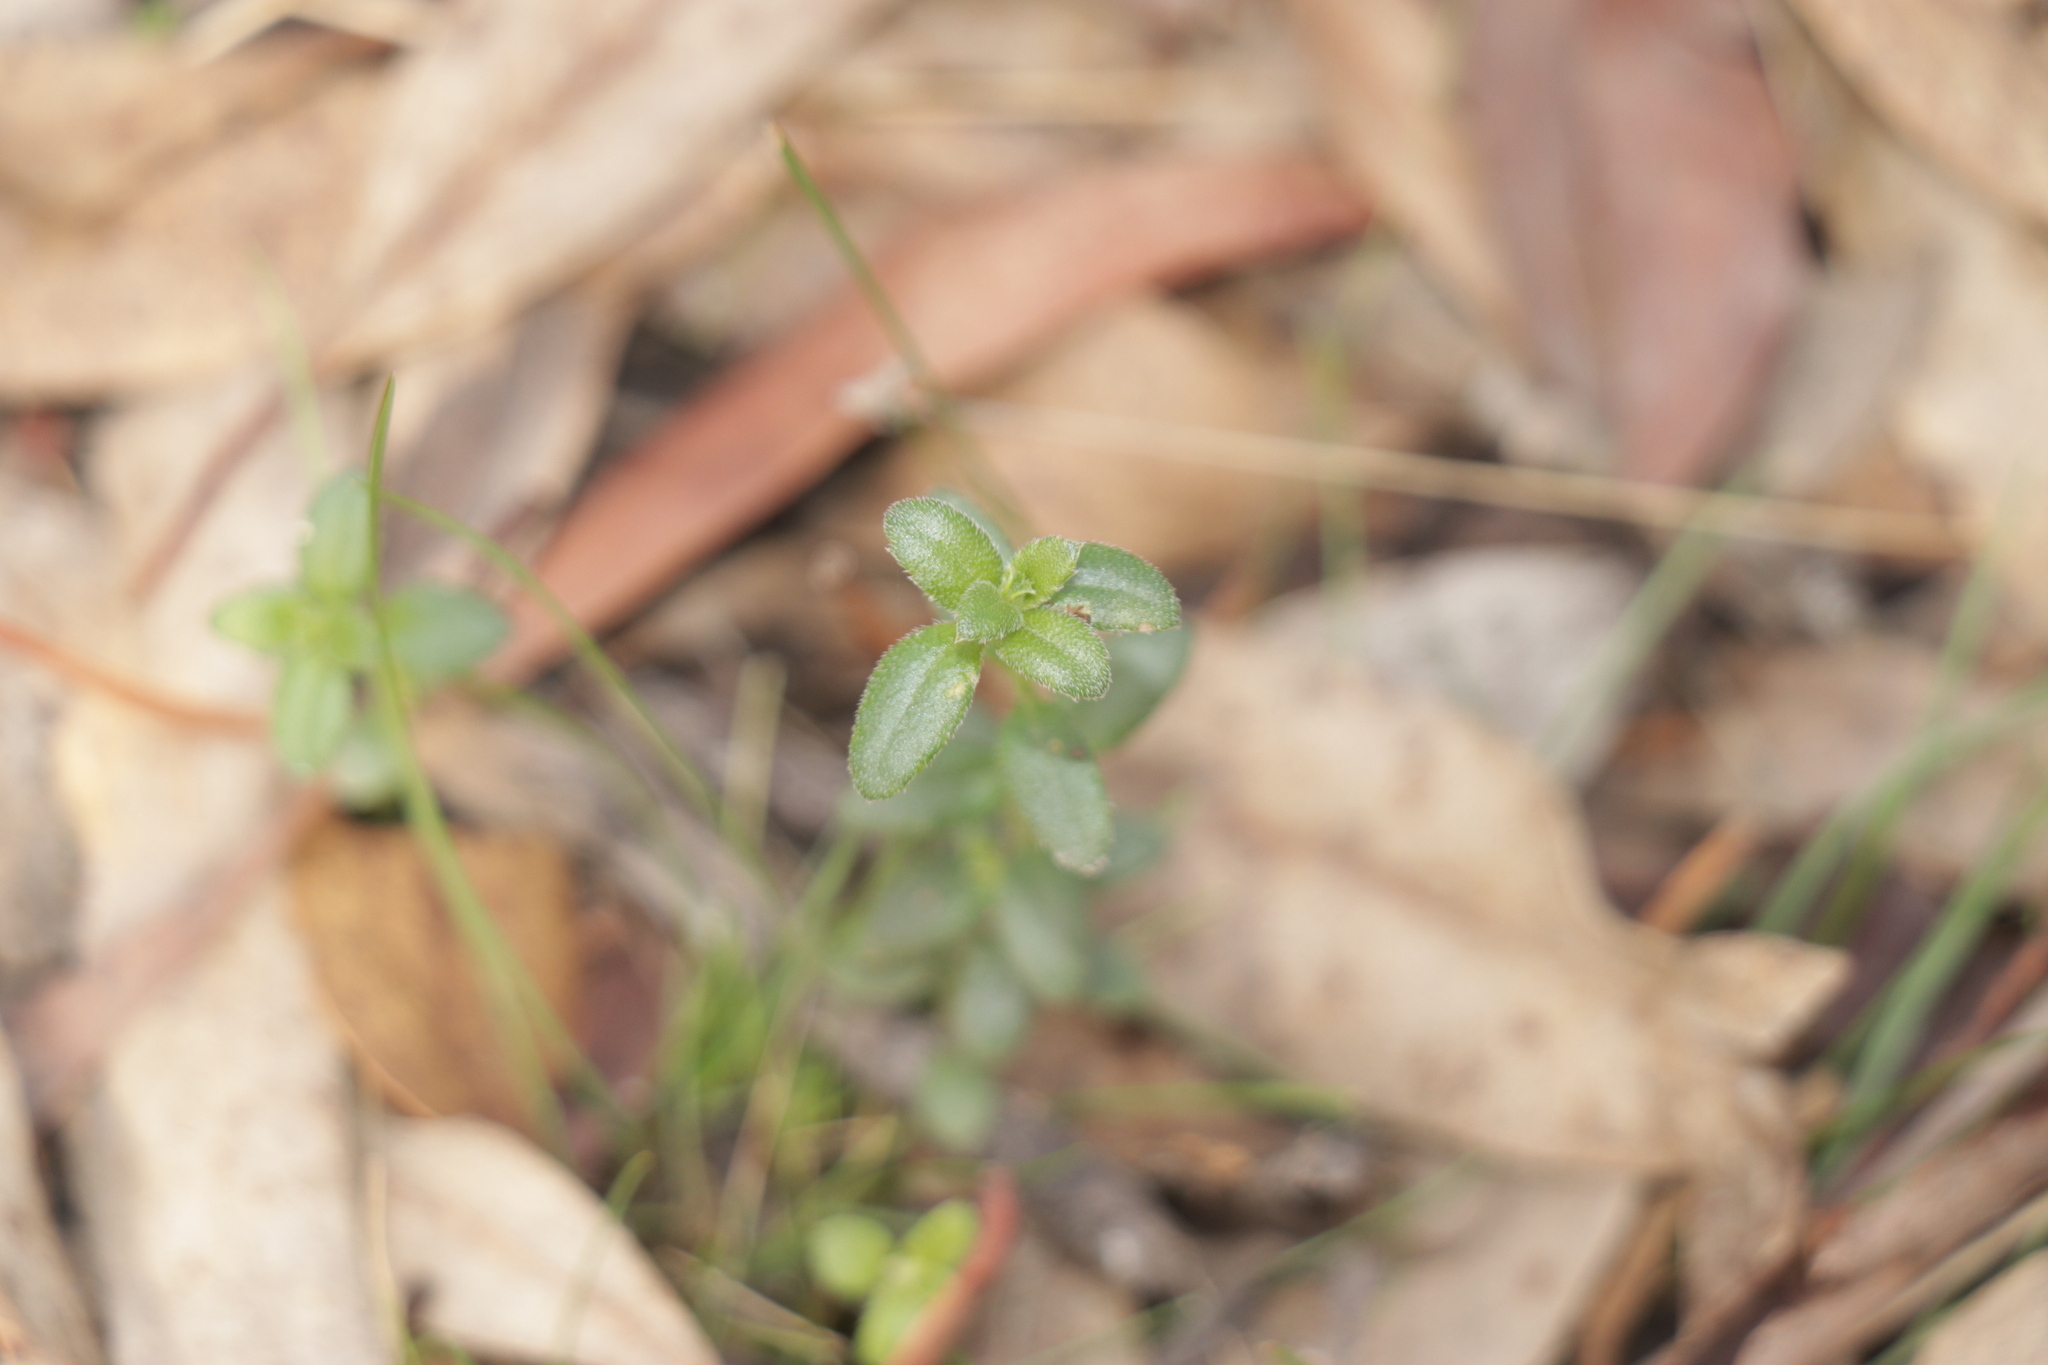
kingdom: Plantae
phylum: Tracheophyta
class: Magnoliopsida
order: Saxifragales
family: Haloragaceae
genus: Gonocarpus
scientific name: Gonocarpus tetragynus
